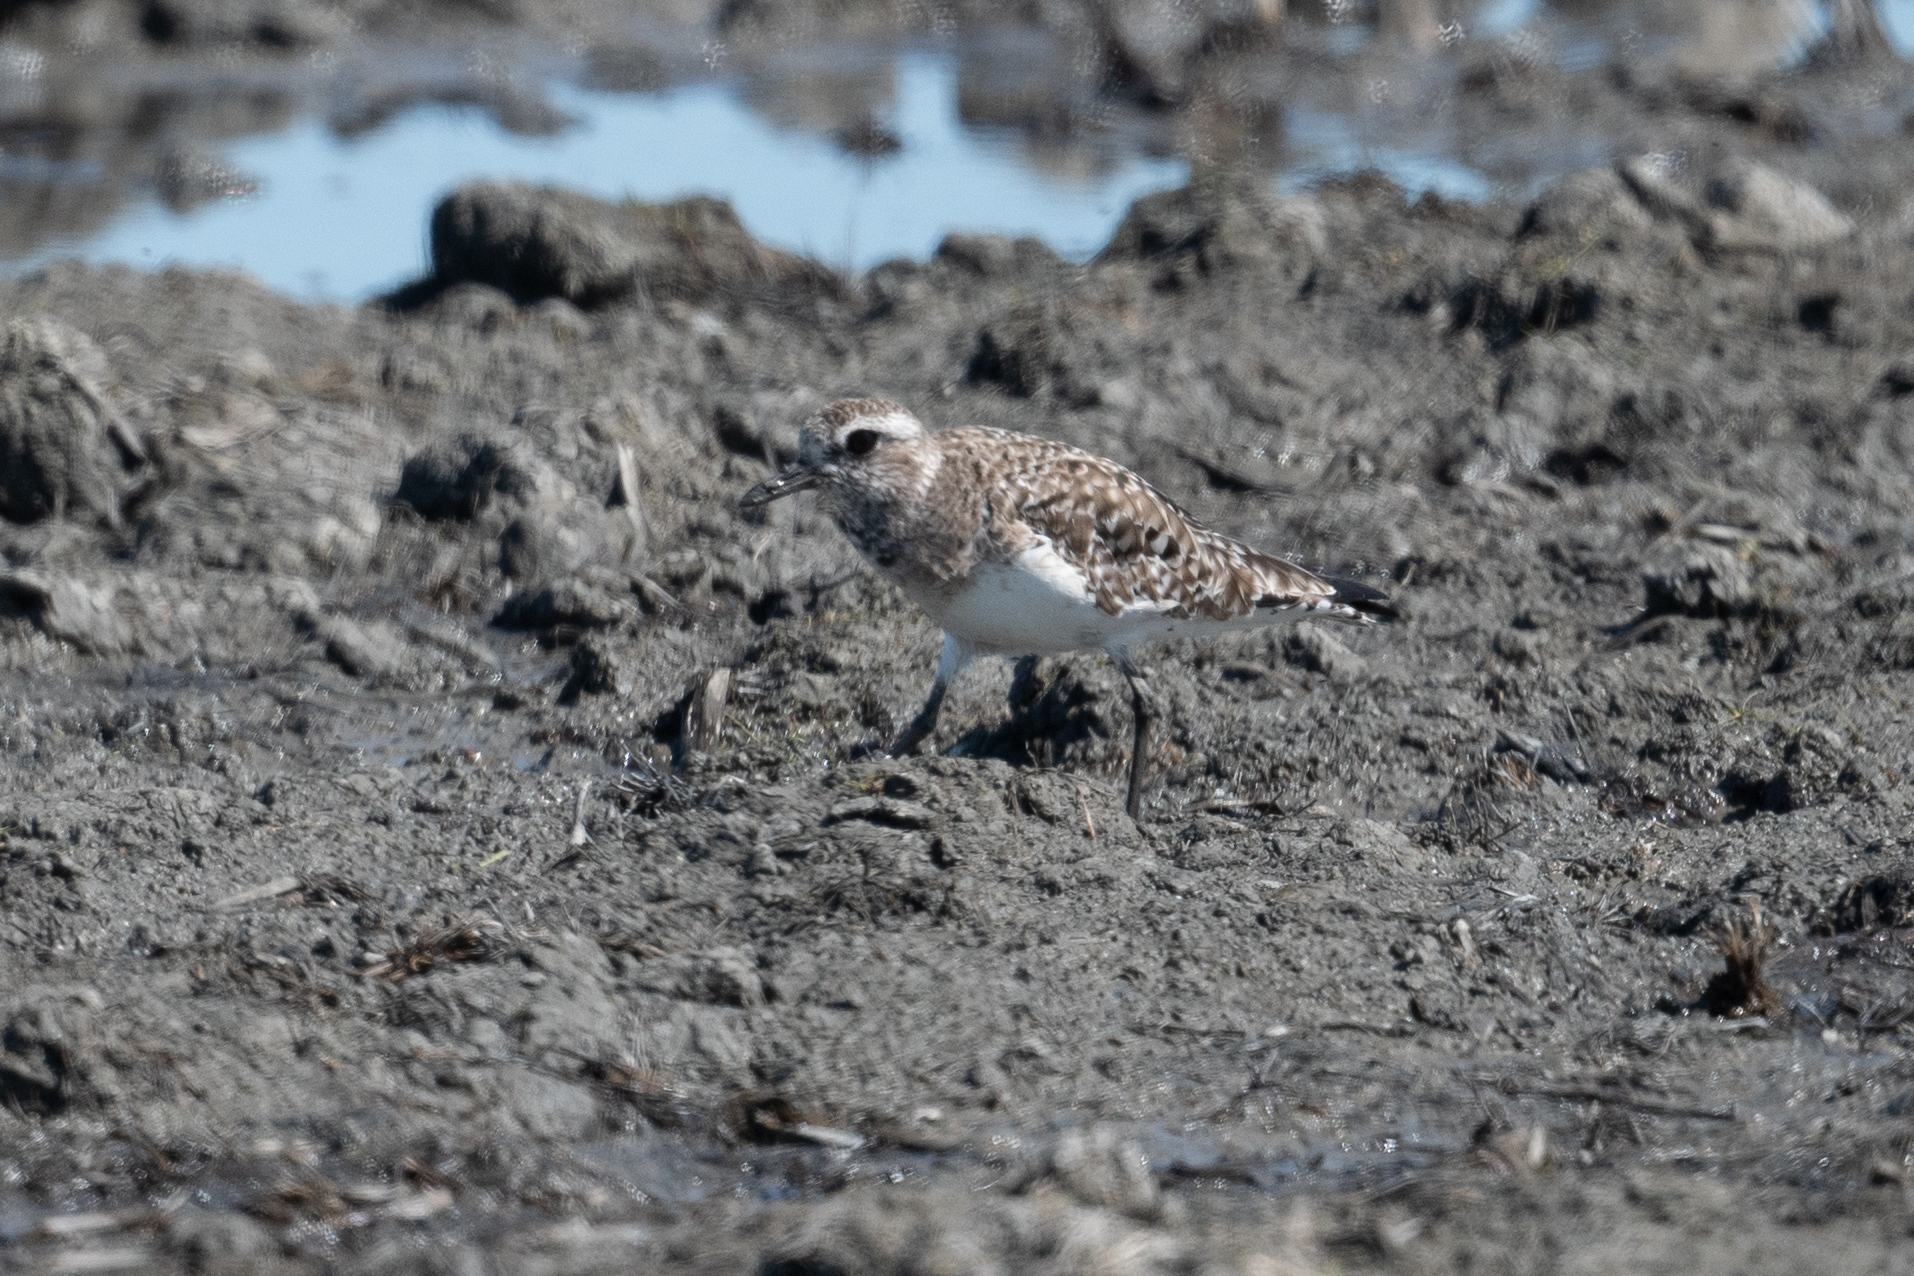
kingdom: Animalia
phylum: Chordata
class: Aves
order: Charadriiformes
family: Charadriidae
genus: Pluvialis
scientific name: Pluvialis squatarola
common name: Grey plover
